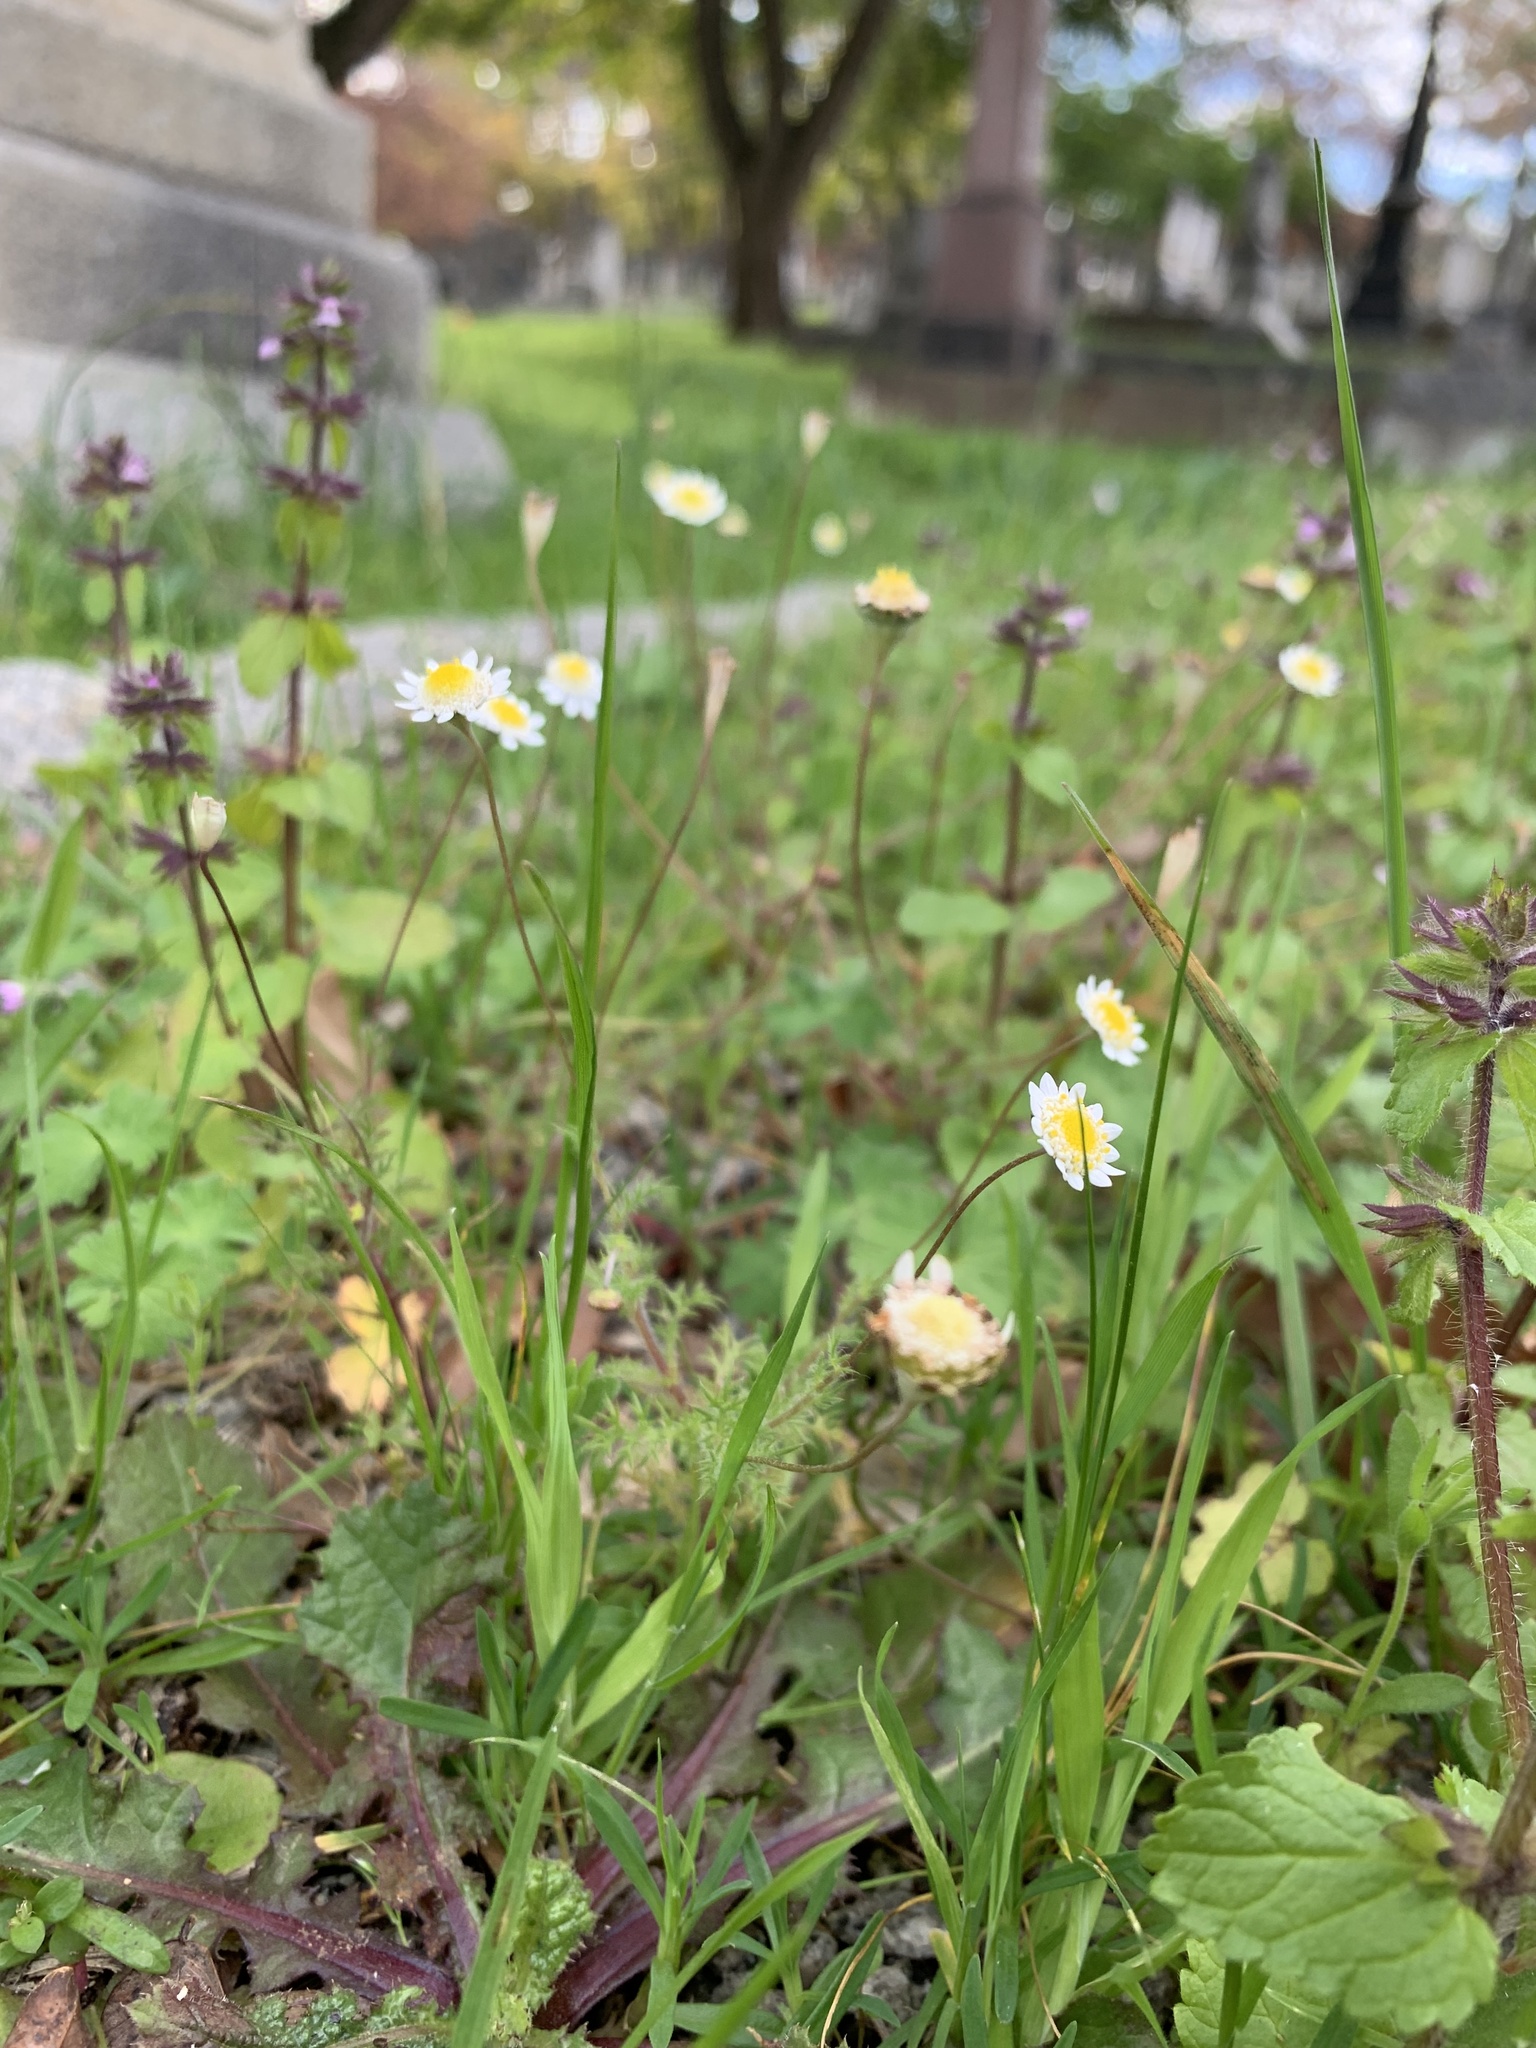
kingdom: Plantae
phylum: Tracheophyta
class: Magnoliopsida
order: Asterales
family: Asteraceae
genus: Cotula
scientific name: Cotula turbinata
